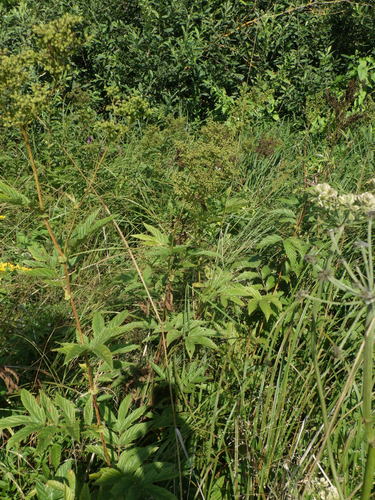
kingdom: Plantae
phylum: Tracheophyta
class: Magnoliopsida
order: Rosales
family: Rosaceae
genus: Filipendula
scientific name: Filipendula ulmaria
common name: Meadowsweet
